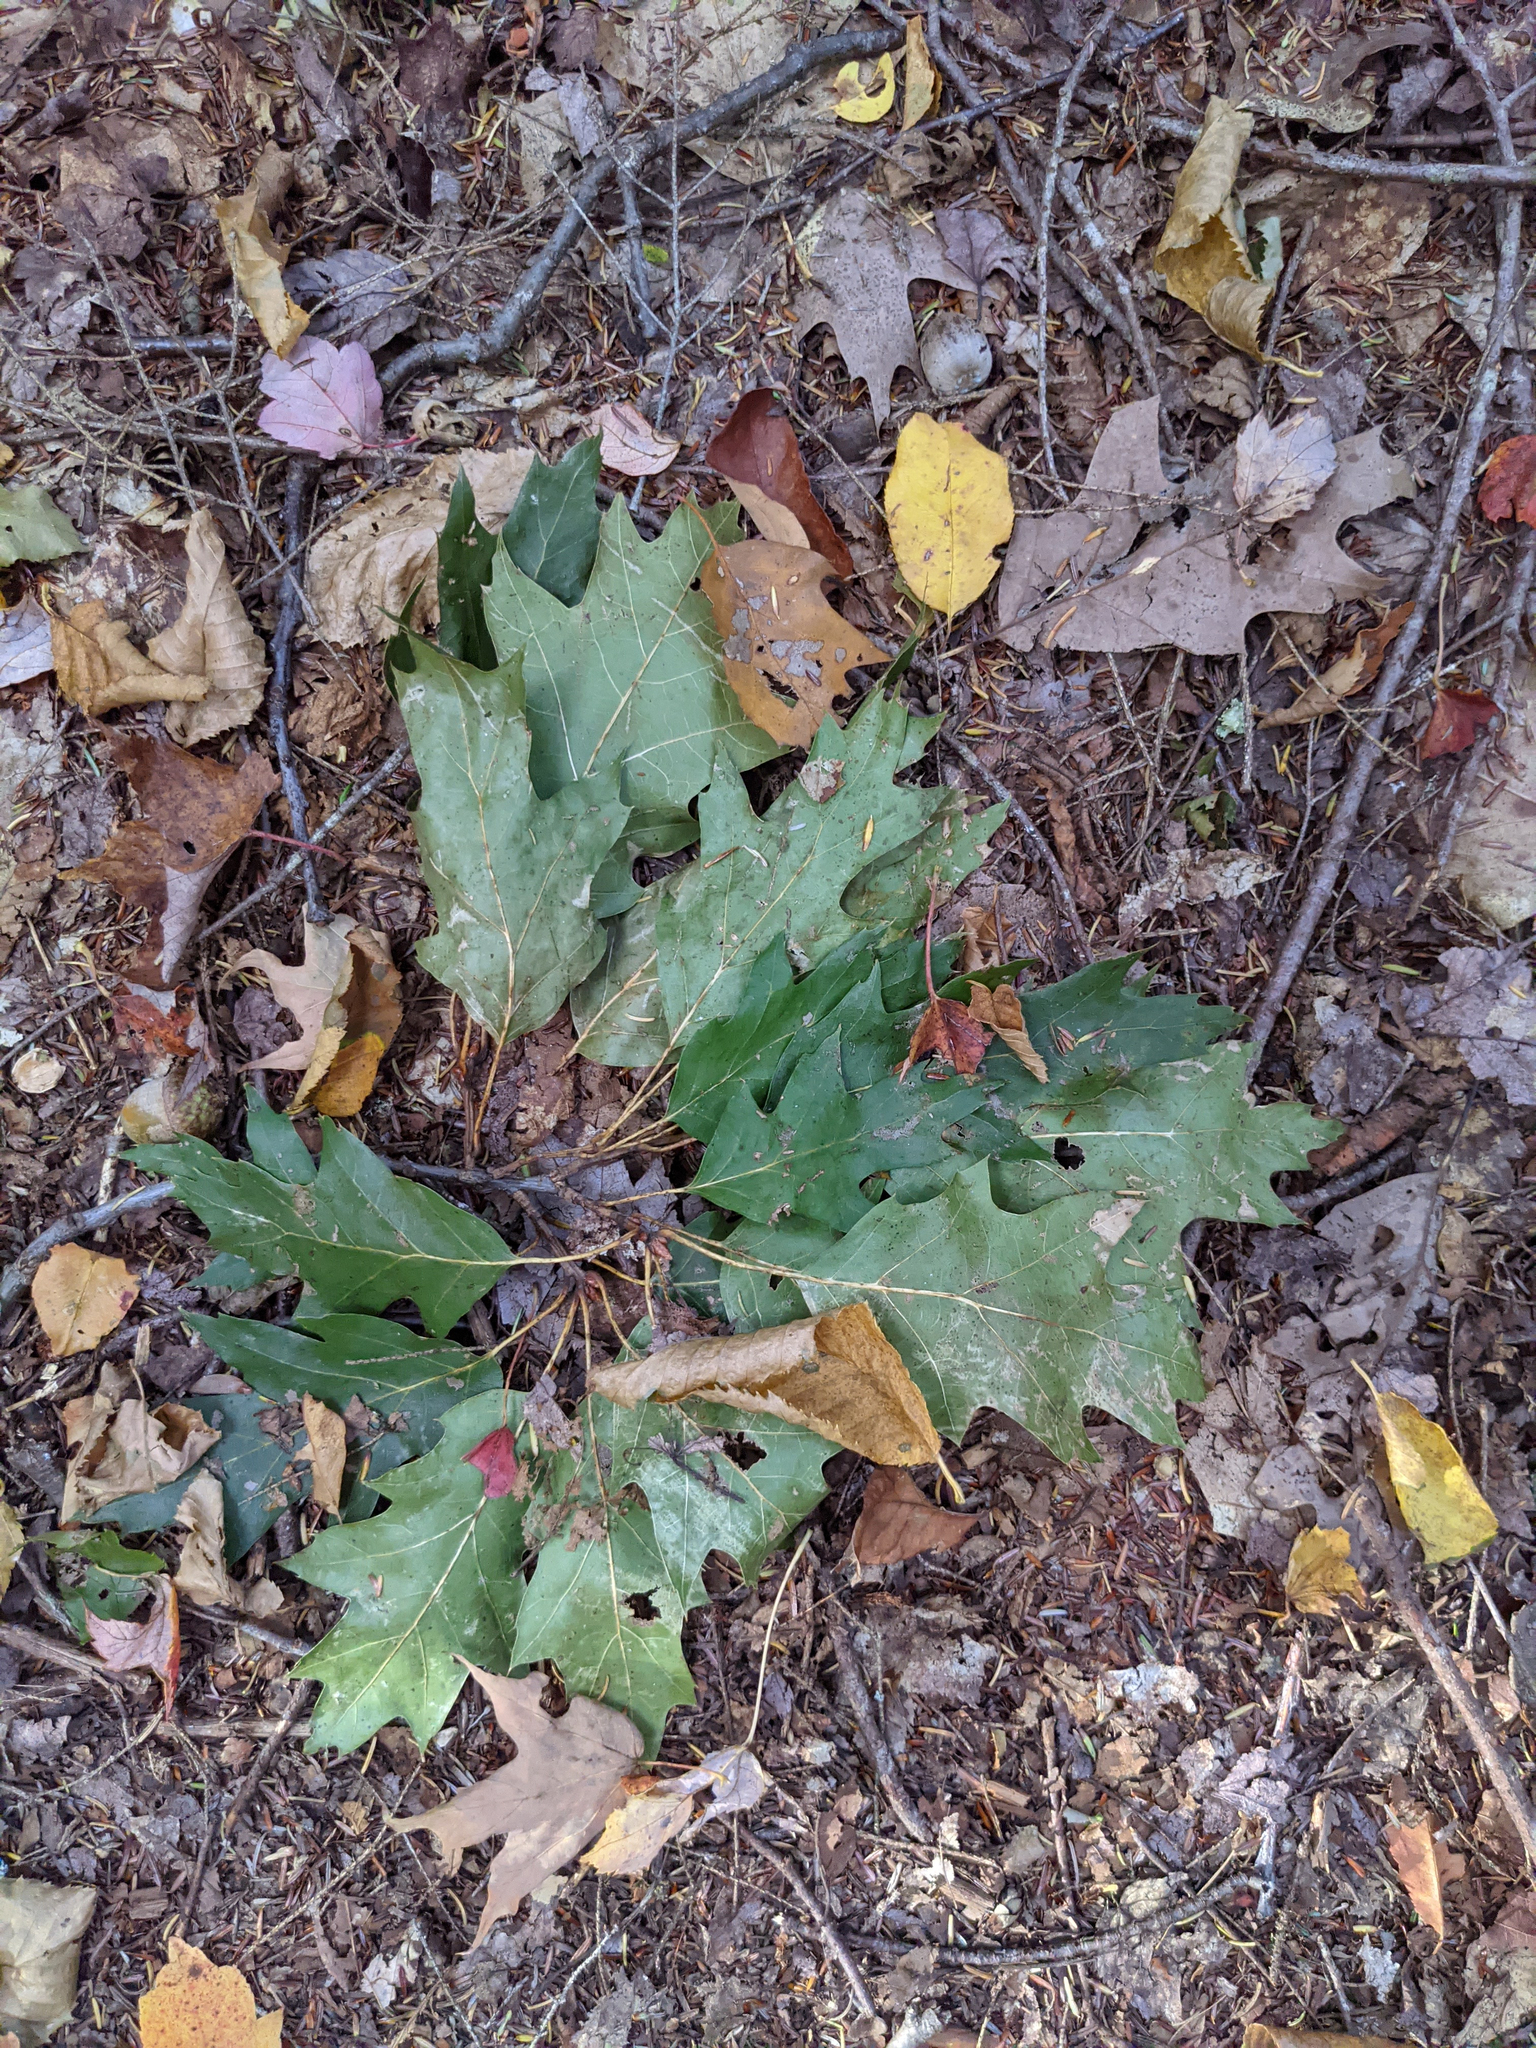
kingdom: Plantae
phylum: Tracheophyta
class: Magnoliopsida
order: Fagales
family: Fagaceae
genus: Quercus
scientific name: Quercus rubra
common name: Red oak
